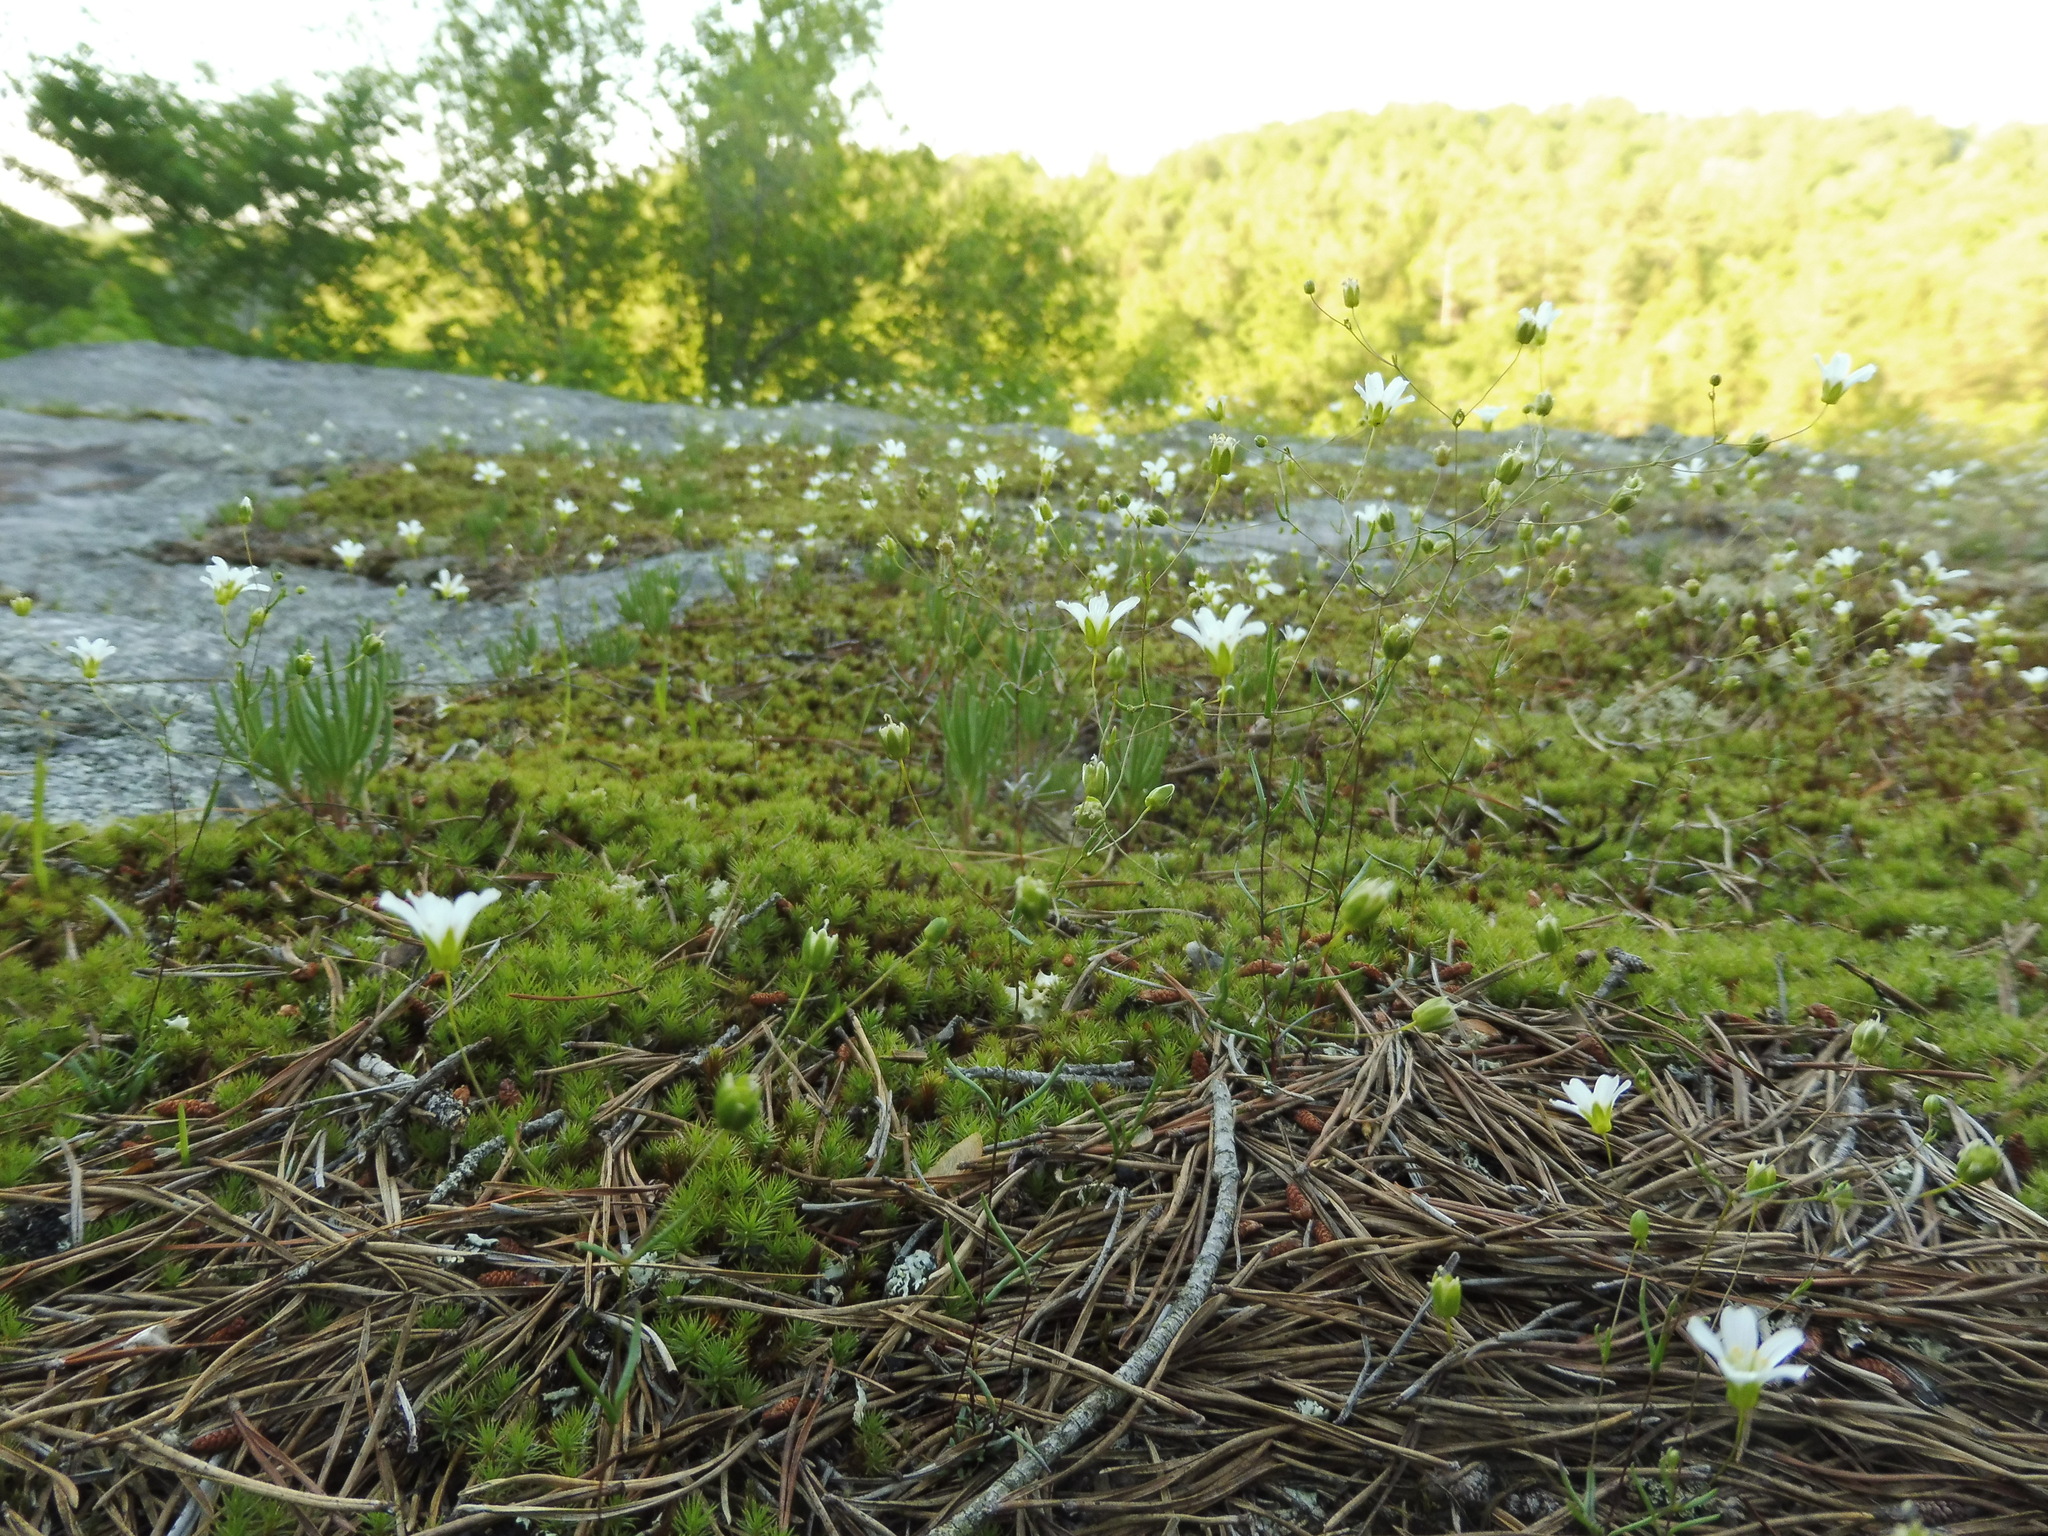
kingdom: Plantae
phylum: Tracheophyta
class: Magnoliopsida
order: Caryophyllales
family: Caryophyllaceae
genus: Geocarpon
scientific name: Geocarpon glabrum
